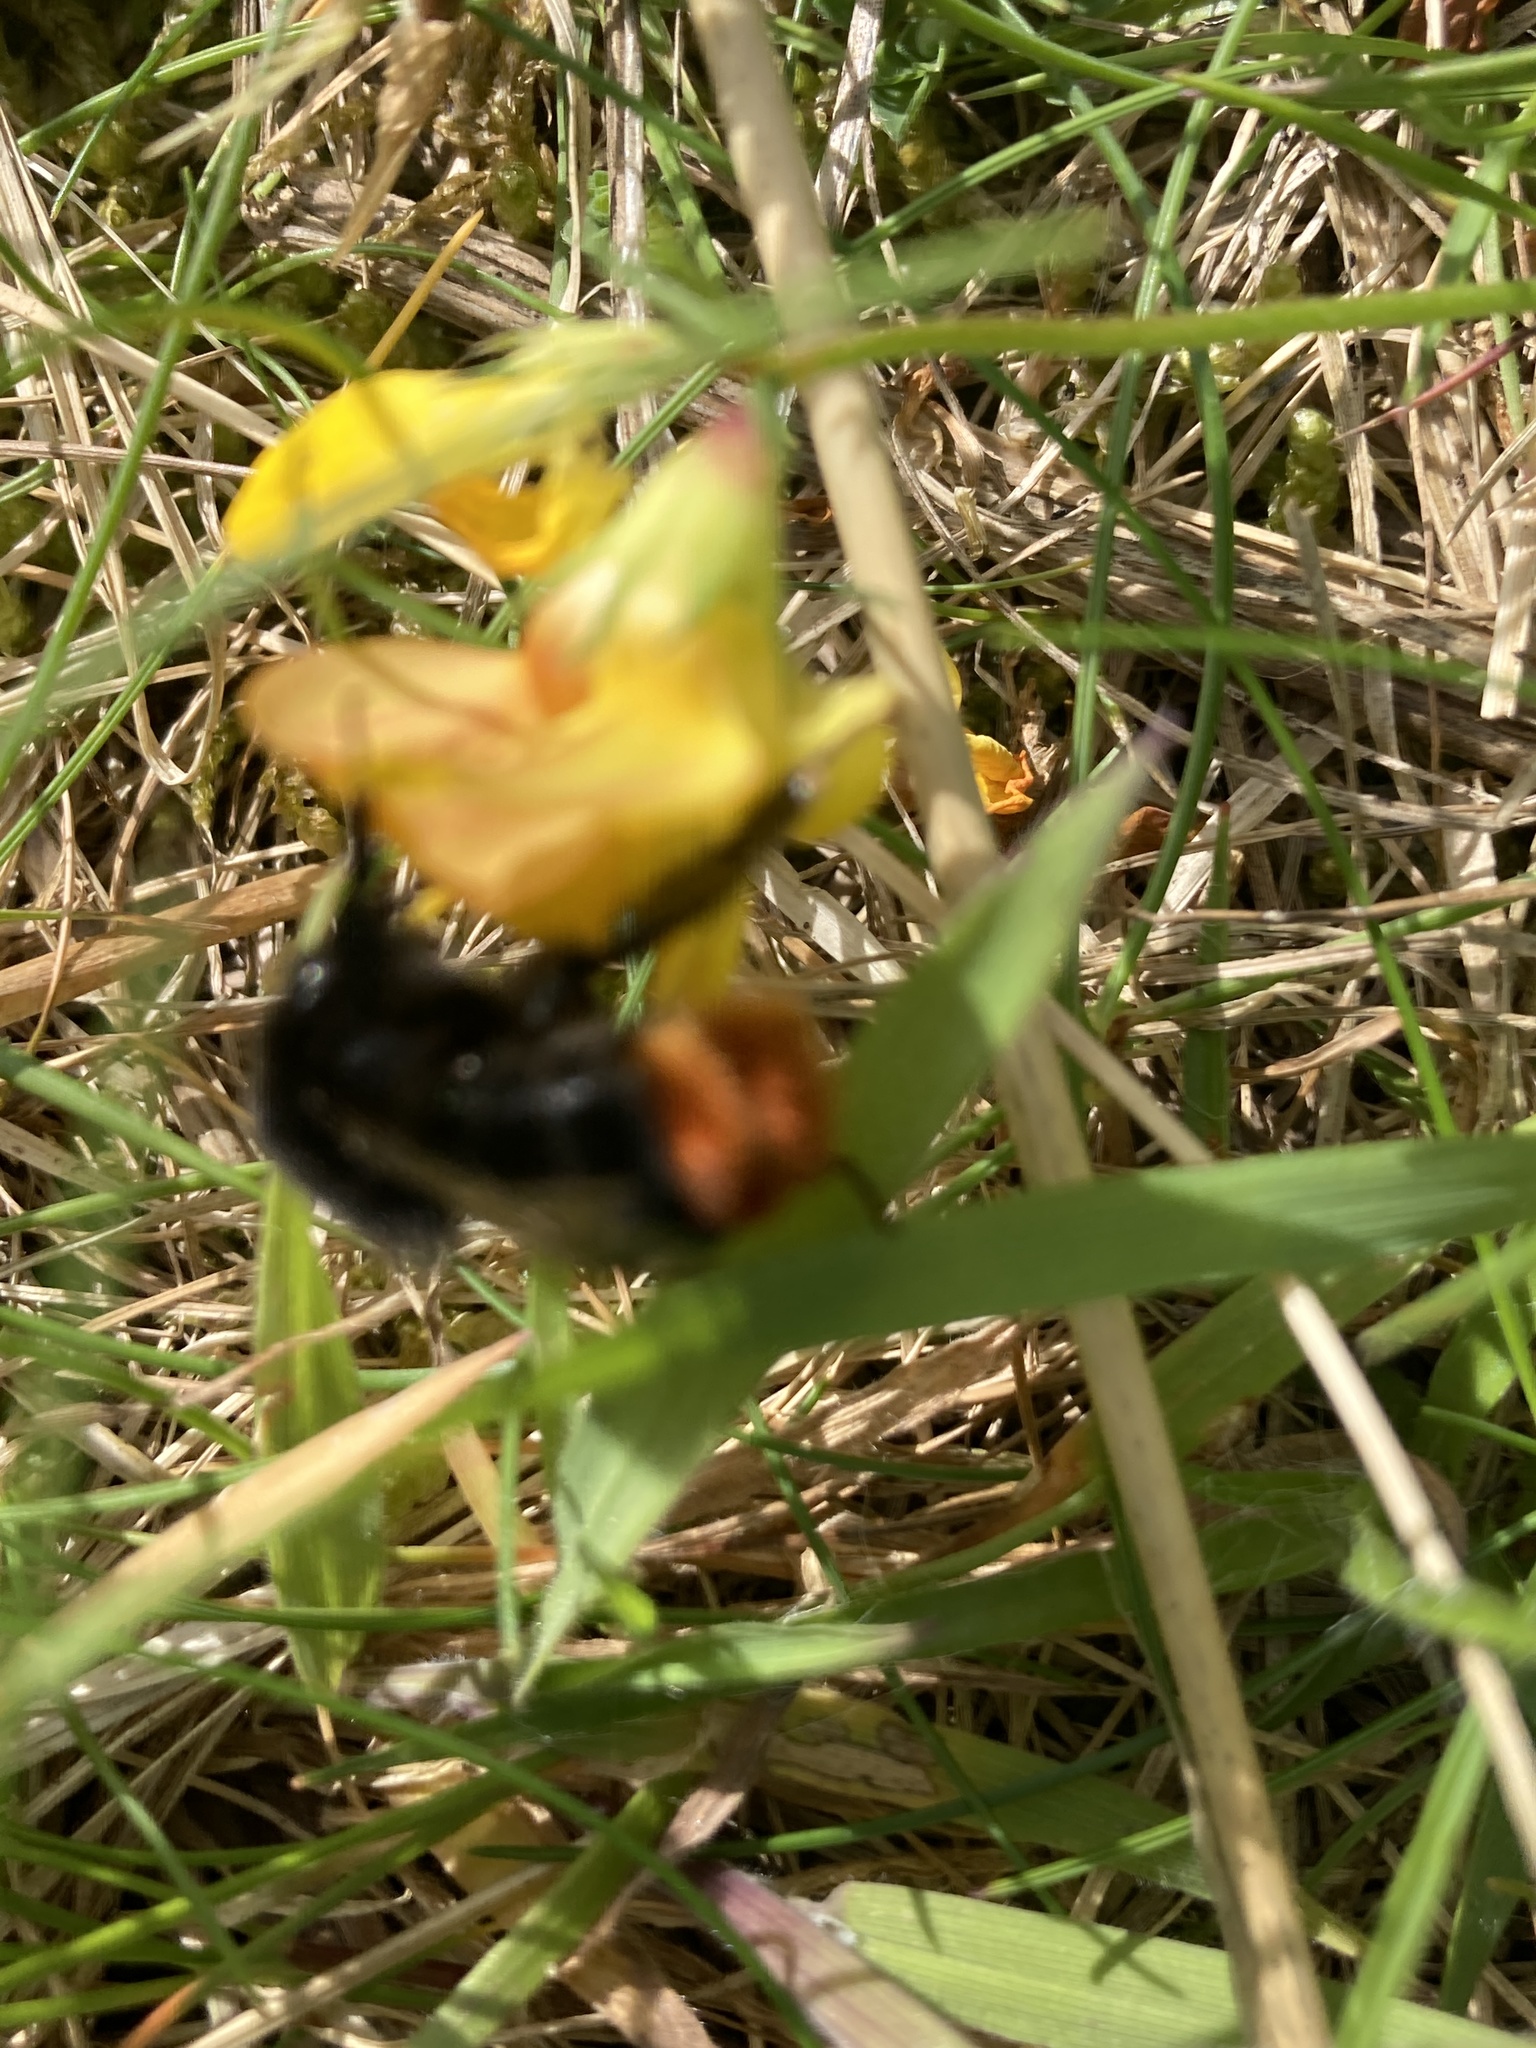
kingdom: Animalia
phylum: Arthropoda
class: Insecta
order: Hymenoptera
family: Apidae
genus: Bombus
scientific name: Bombus lapidarius
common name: Large red-tailed humble-bee
